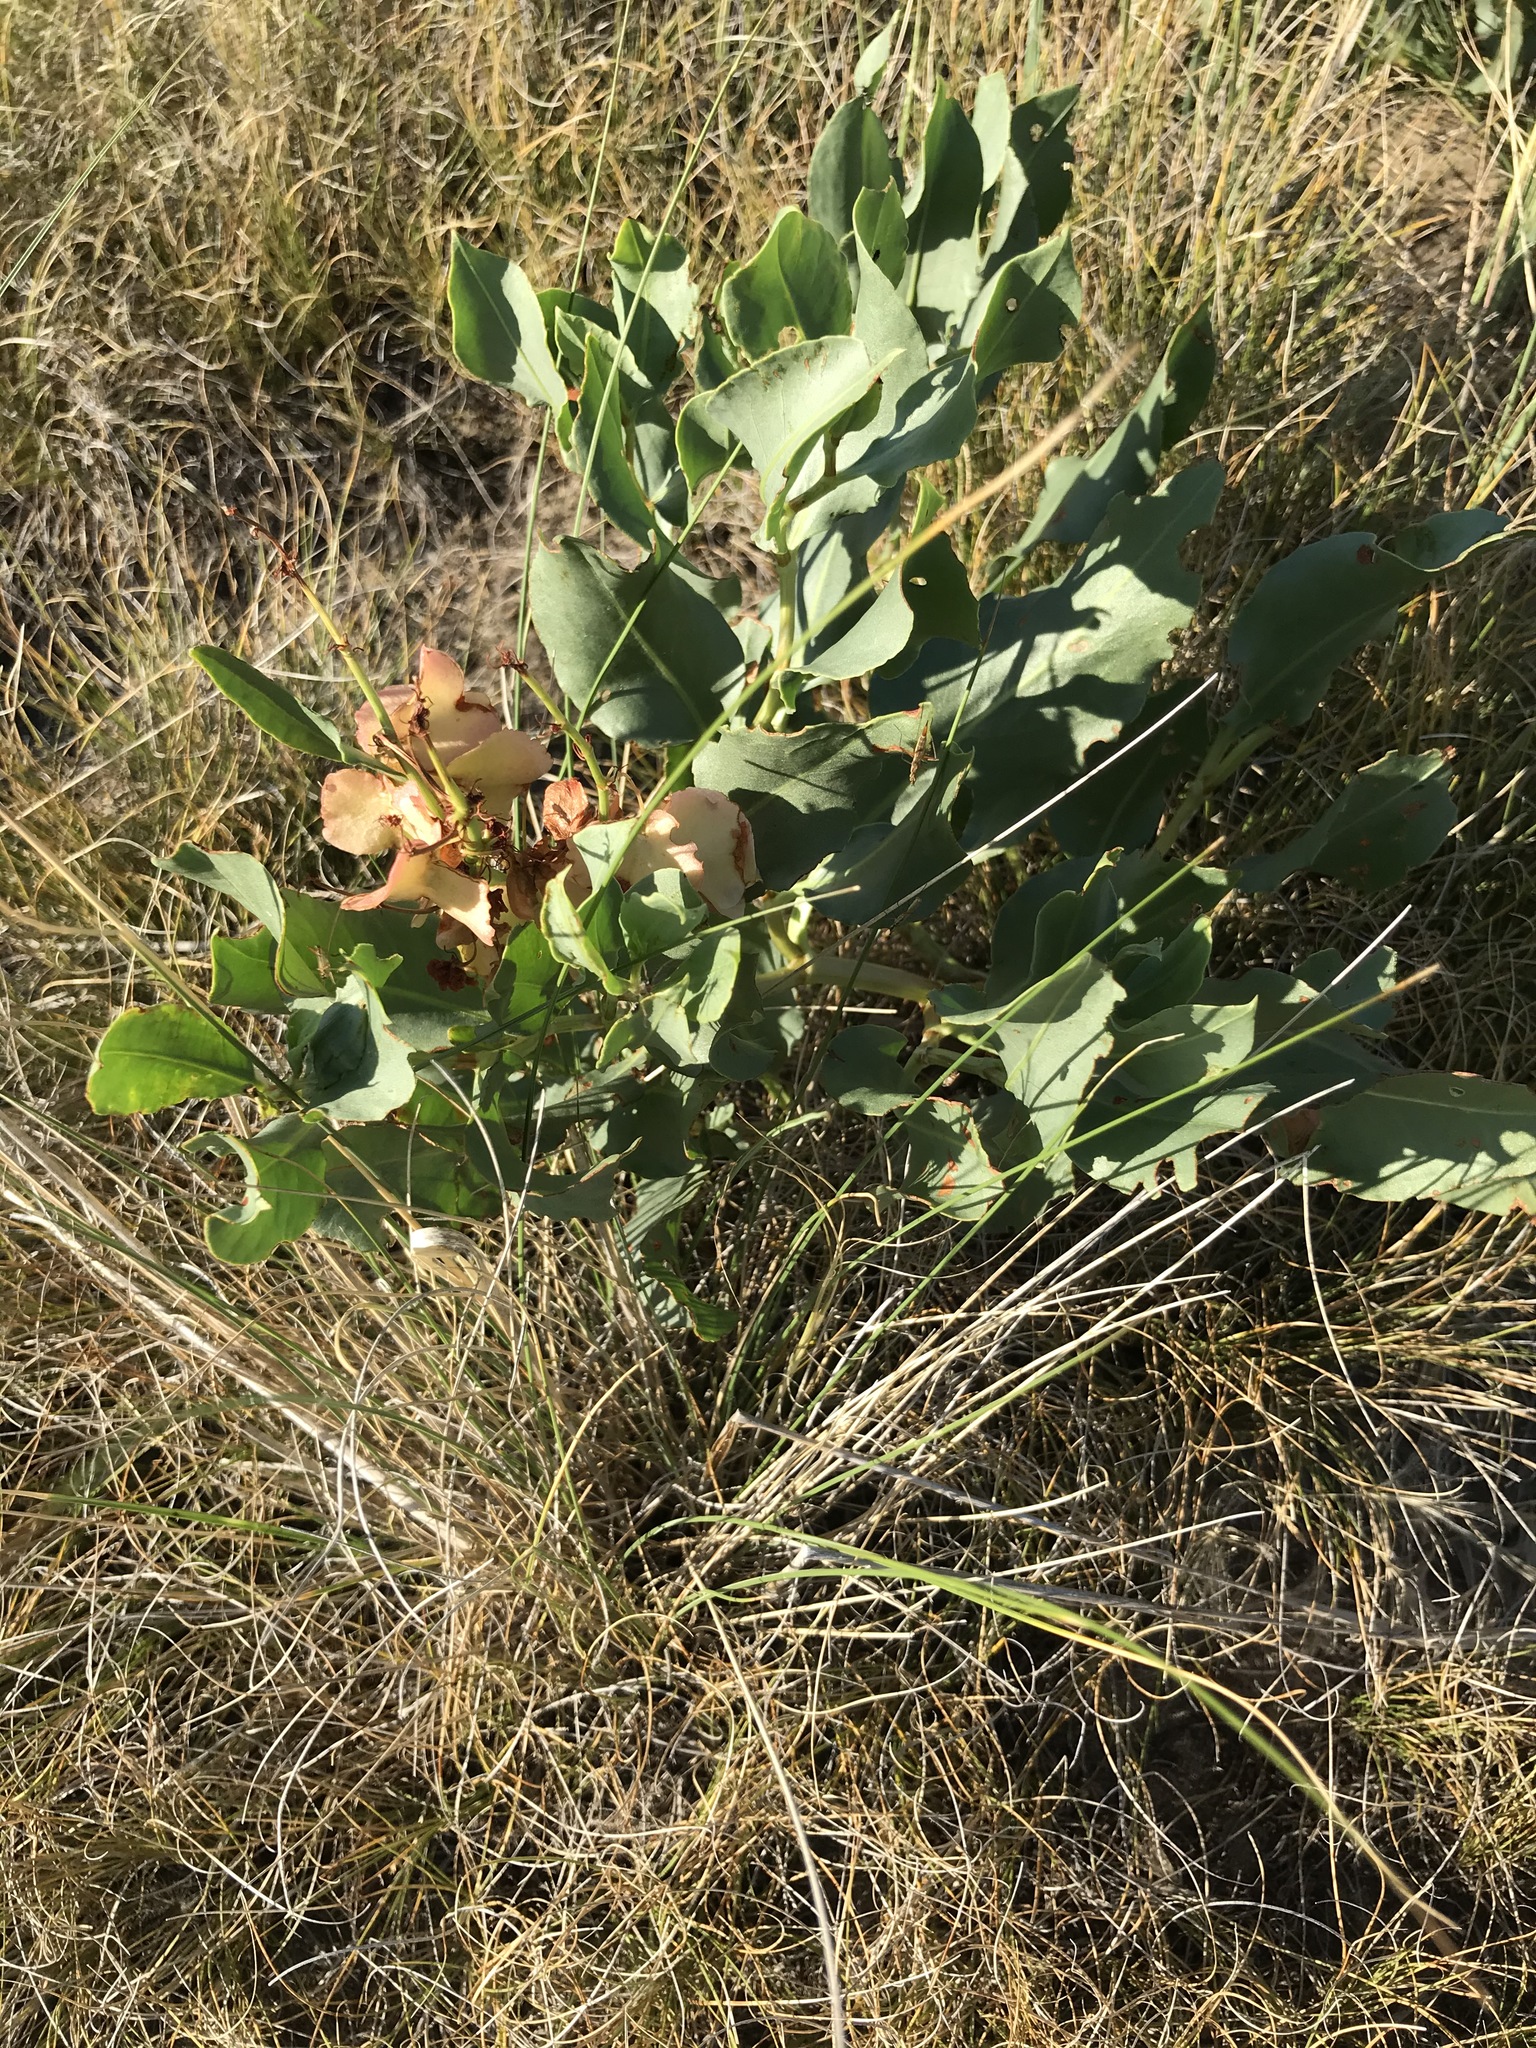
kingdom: Plantae
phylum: Tracheophyta
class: Magnoliopsida
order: Caryophyllales
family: Polygonaceae
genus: Rumex
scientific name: Rumex venosus
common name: Winged dock
